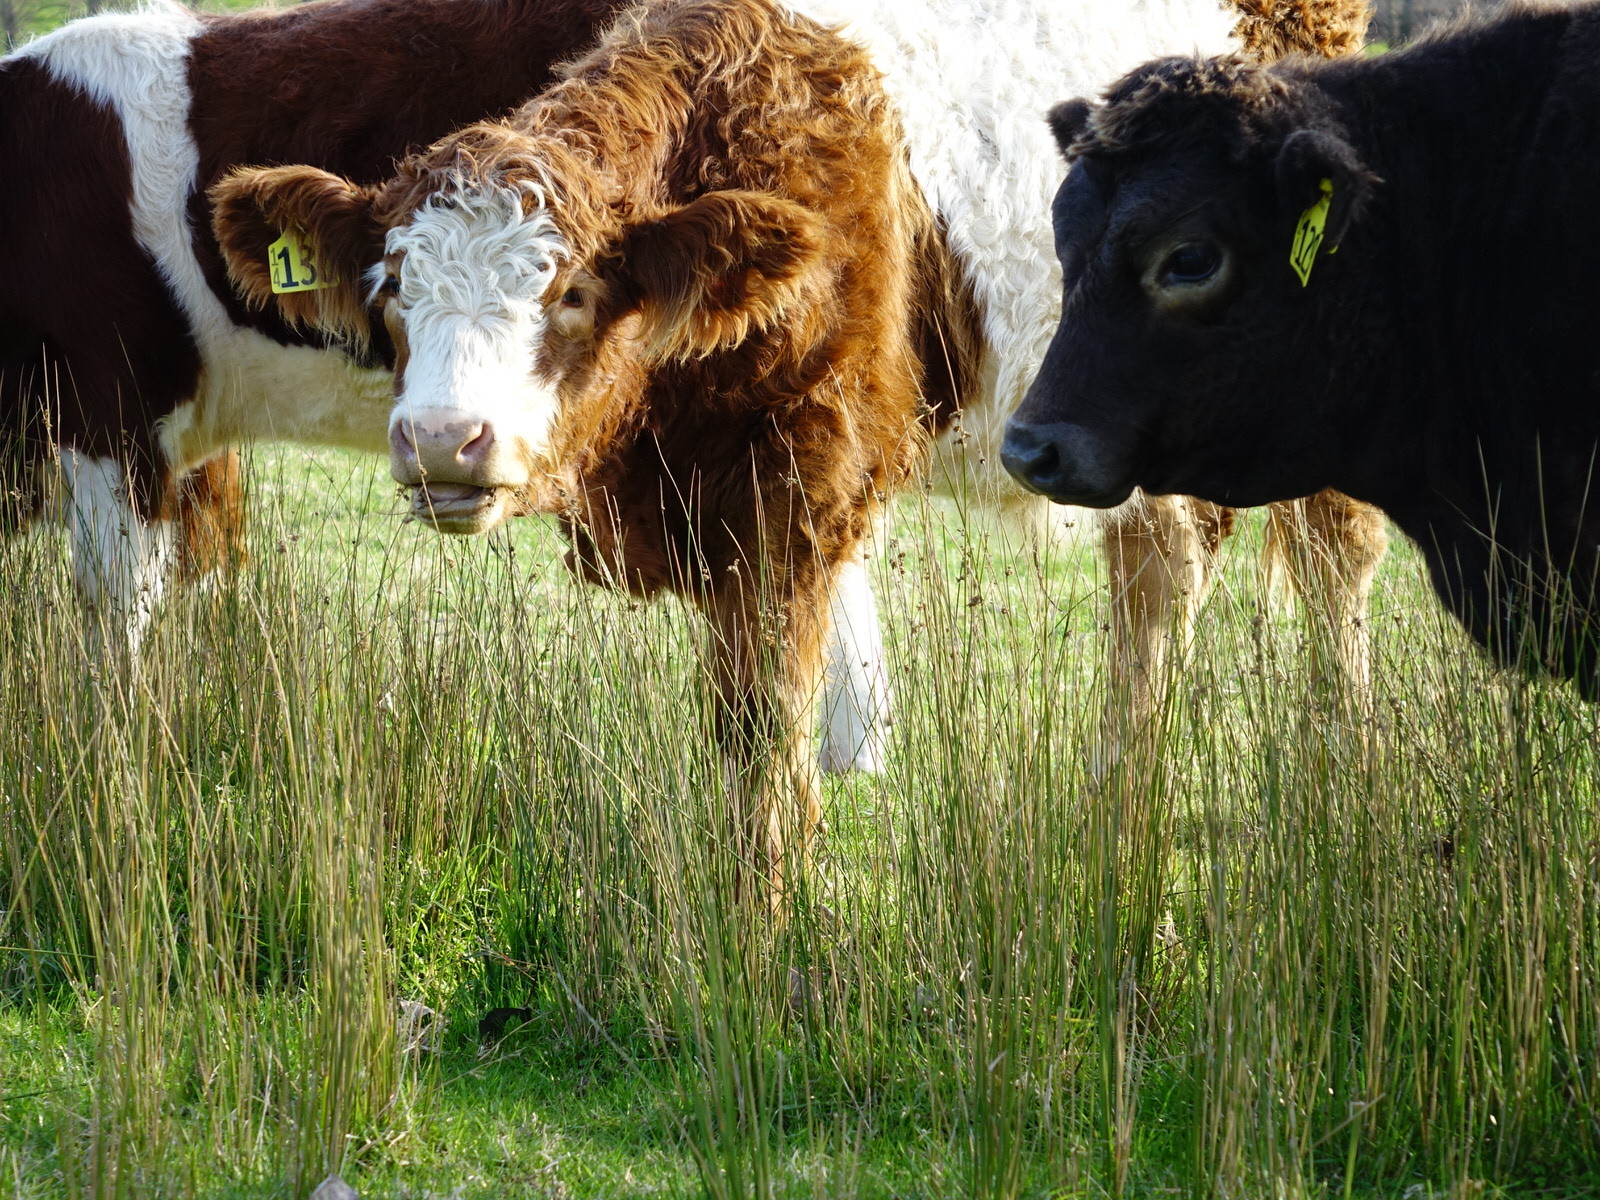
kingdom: Plantae
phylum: Tracheophyta
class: Liliopsida
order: Poales
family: Juncaceae
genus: Juncus
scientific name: Juncus edgariae
